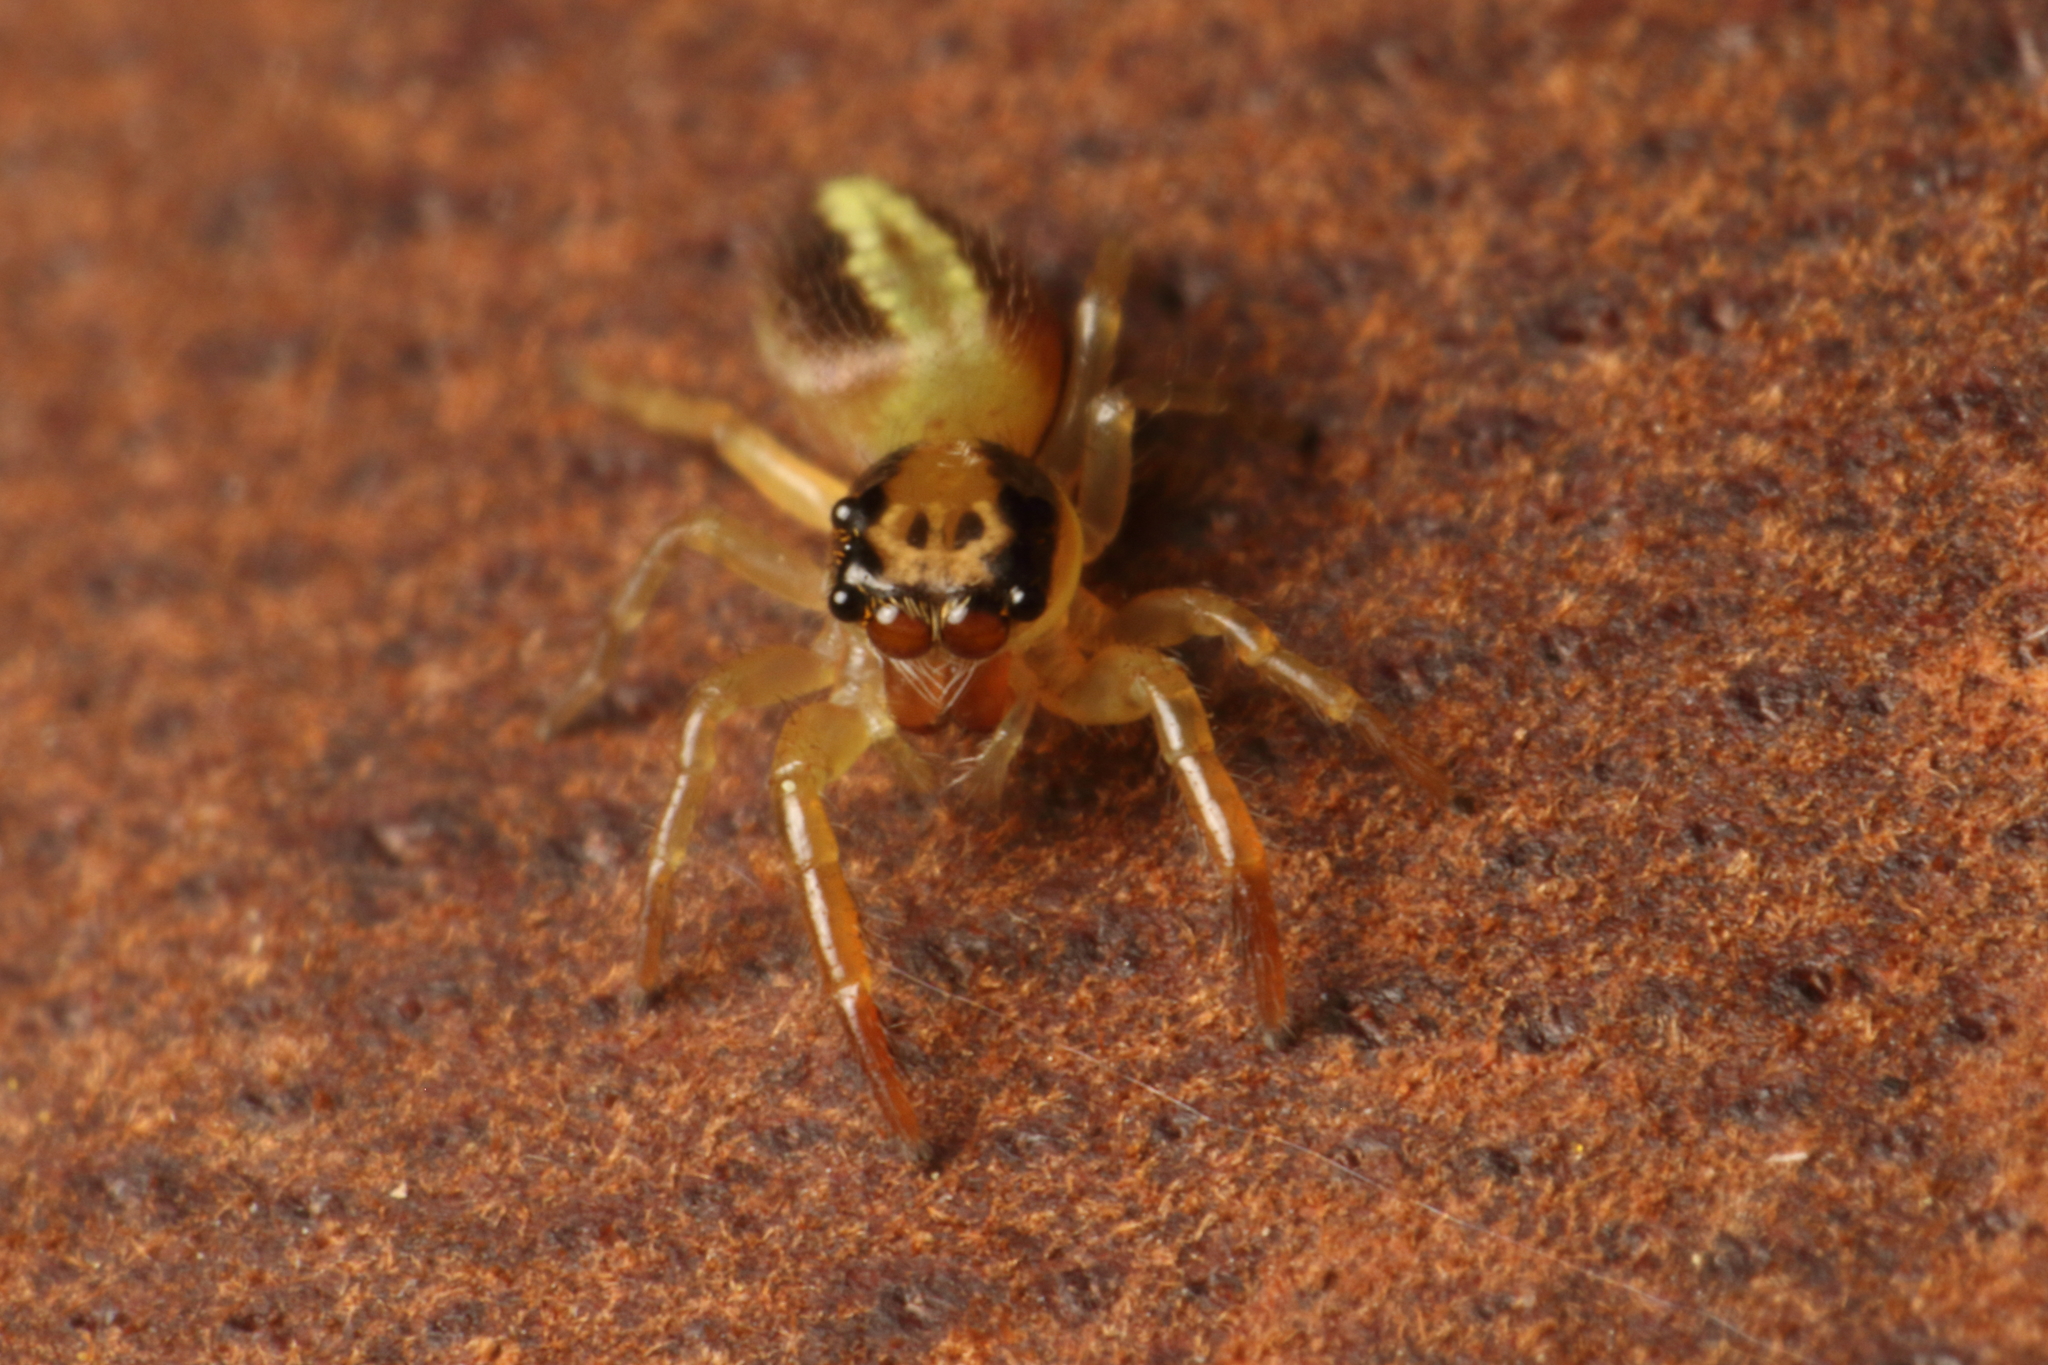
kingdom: Animalia
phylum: Arthropoda
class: Arachnida
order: Araneae
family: Salticidae
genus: Trite
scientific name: Trite planiceps
